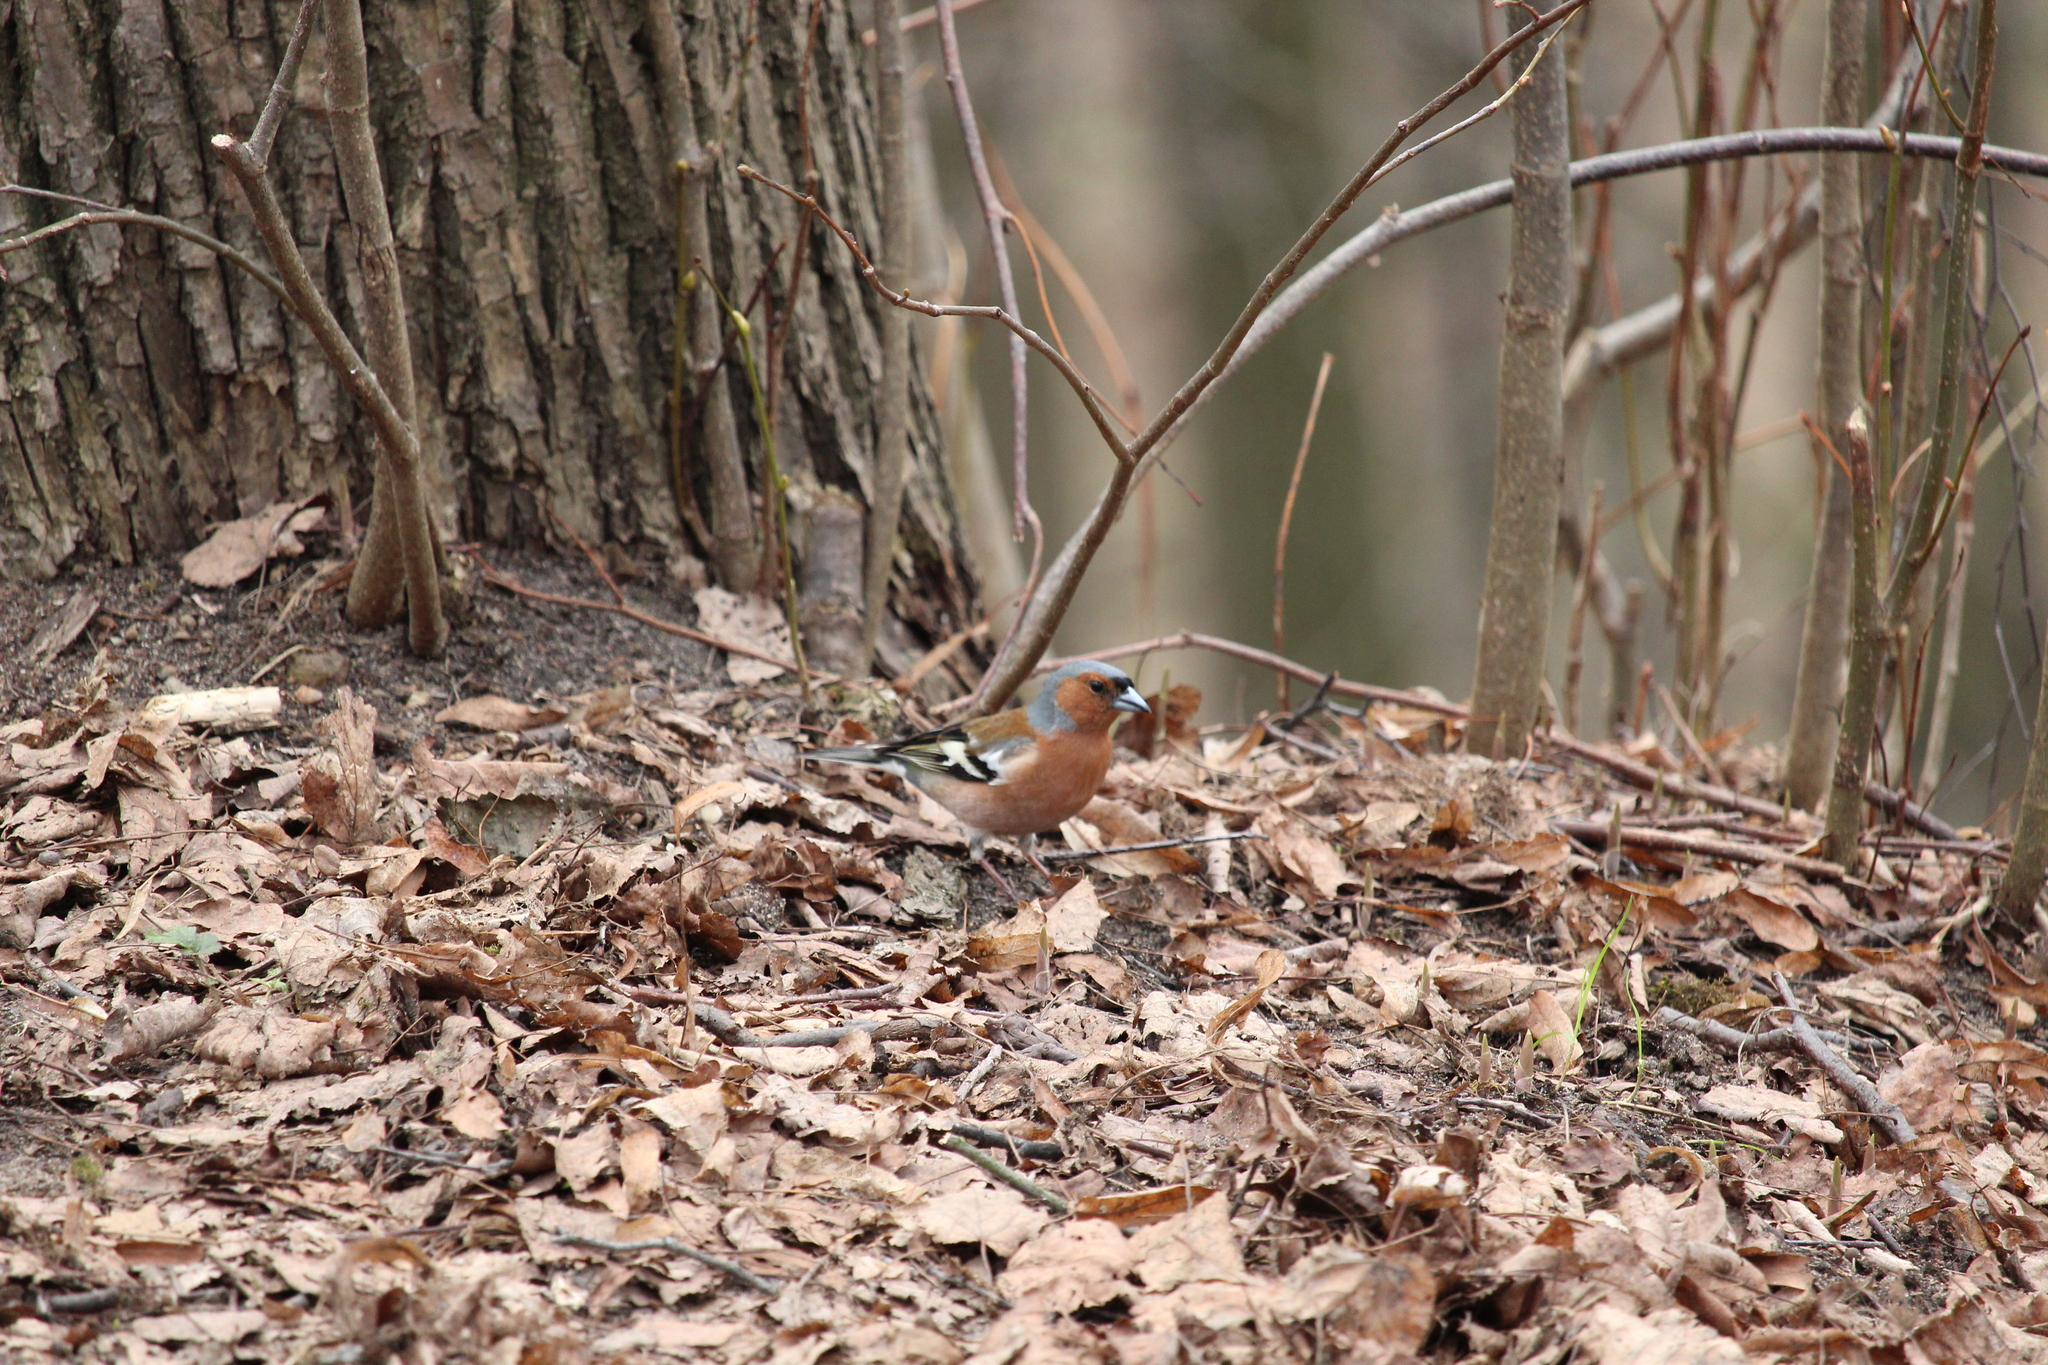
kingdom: Animalia
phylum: Chordata
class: Aves
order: Passeriformes
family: Fringillidae
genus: Fringilla
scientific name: Fringilla coelebs
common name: Common chaffinch
